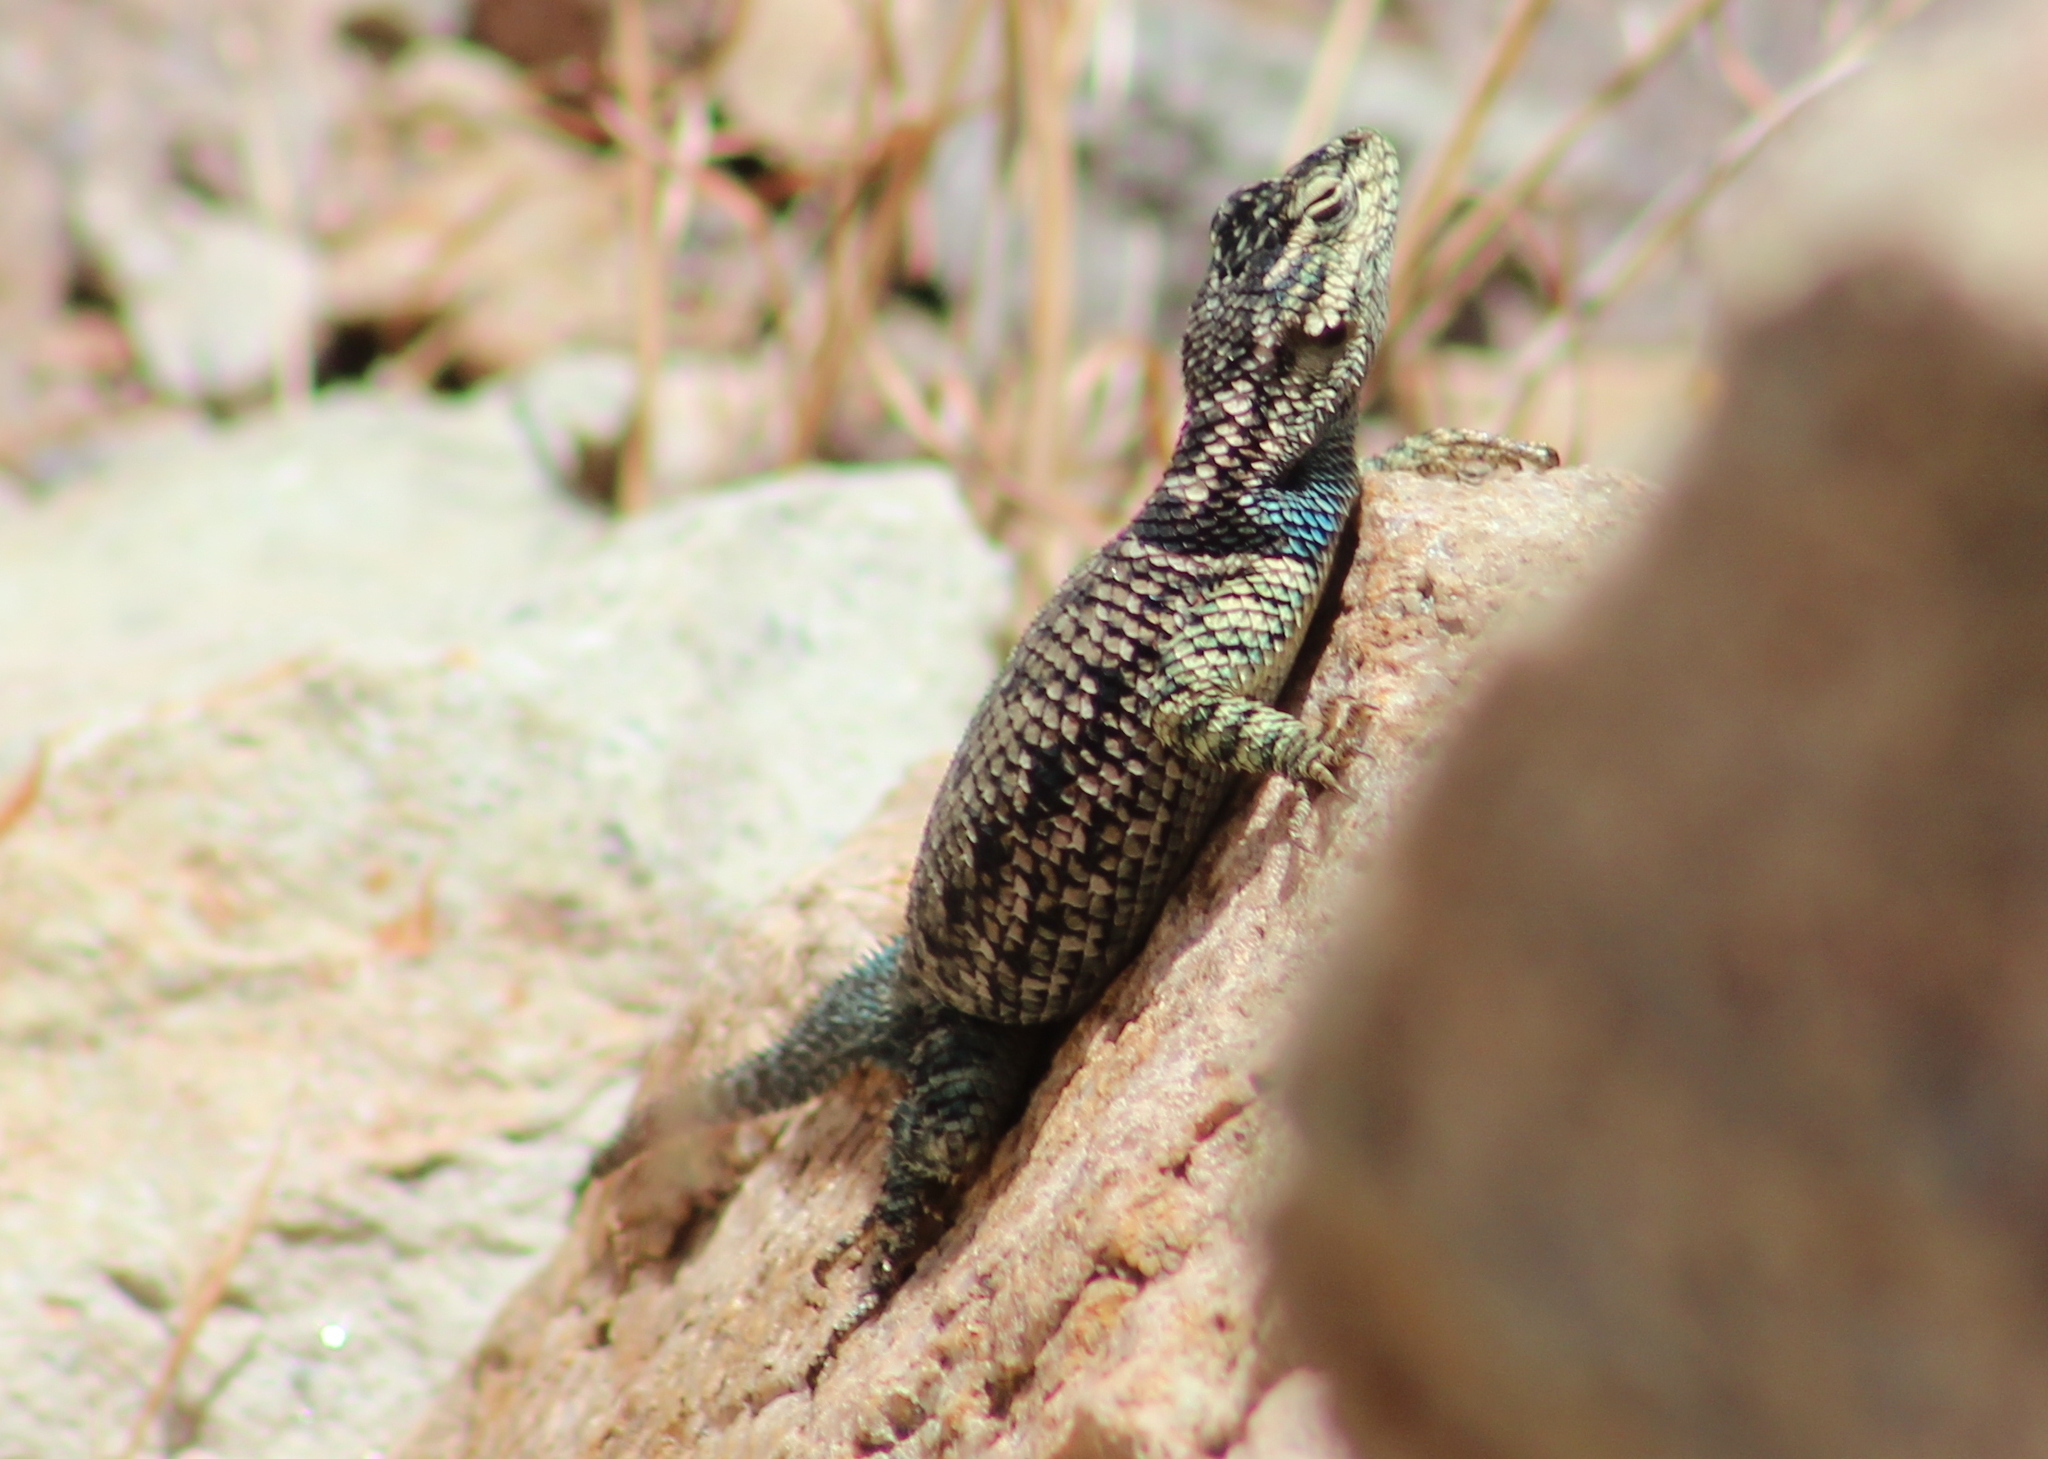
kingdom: Animalia
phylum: Chordata
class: Squamata
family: Phrynosomatidae
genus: Sceloporus
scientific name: Sceloporus jarrovii
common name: Yarrow's spiny lizard
